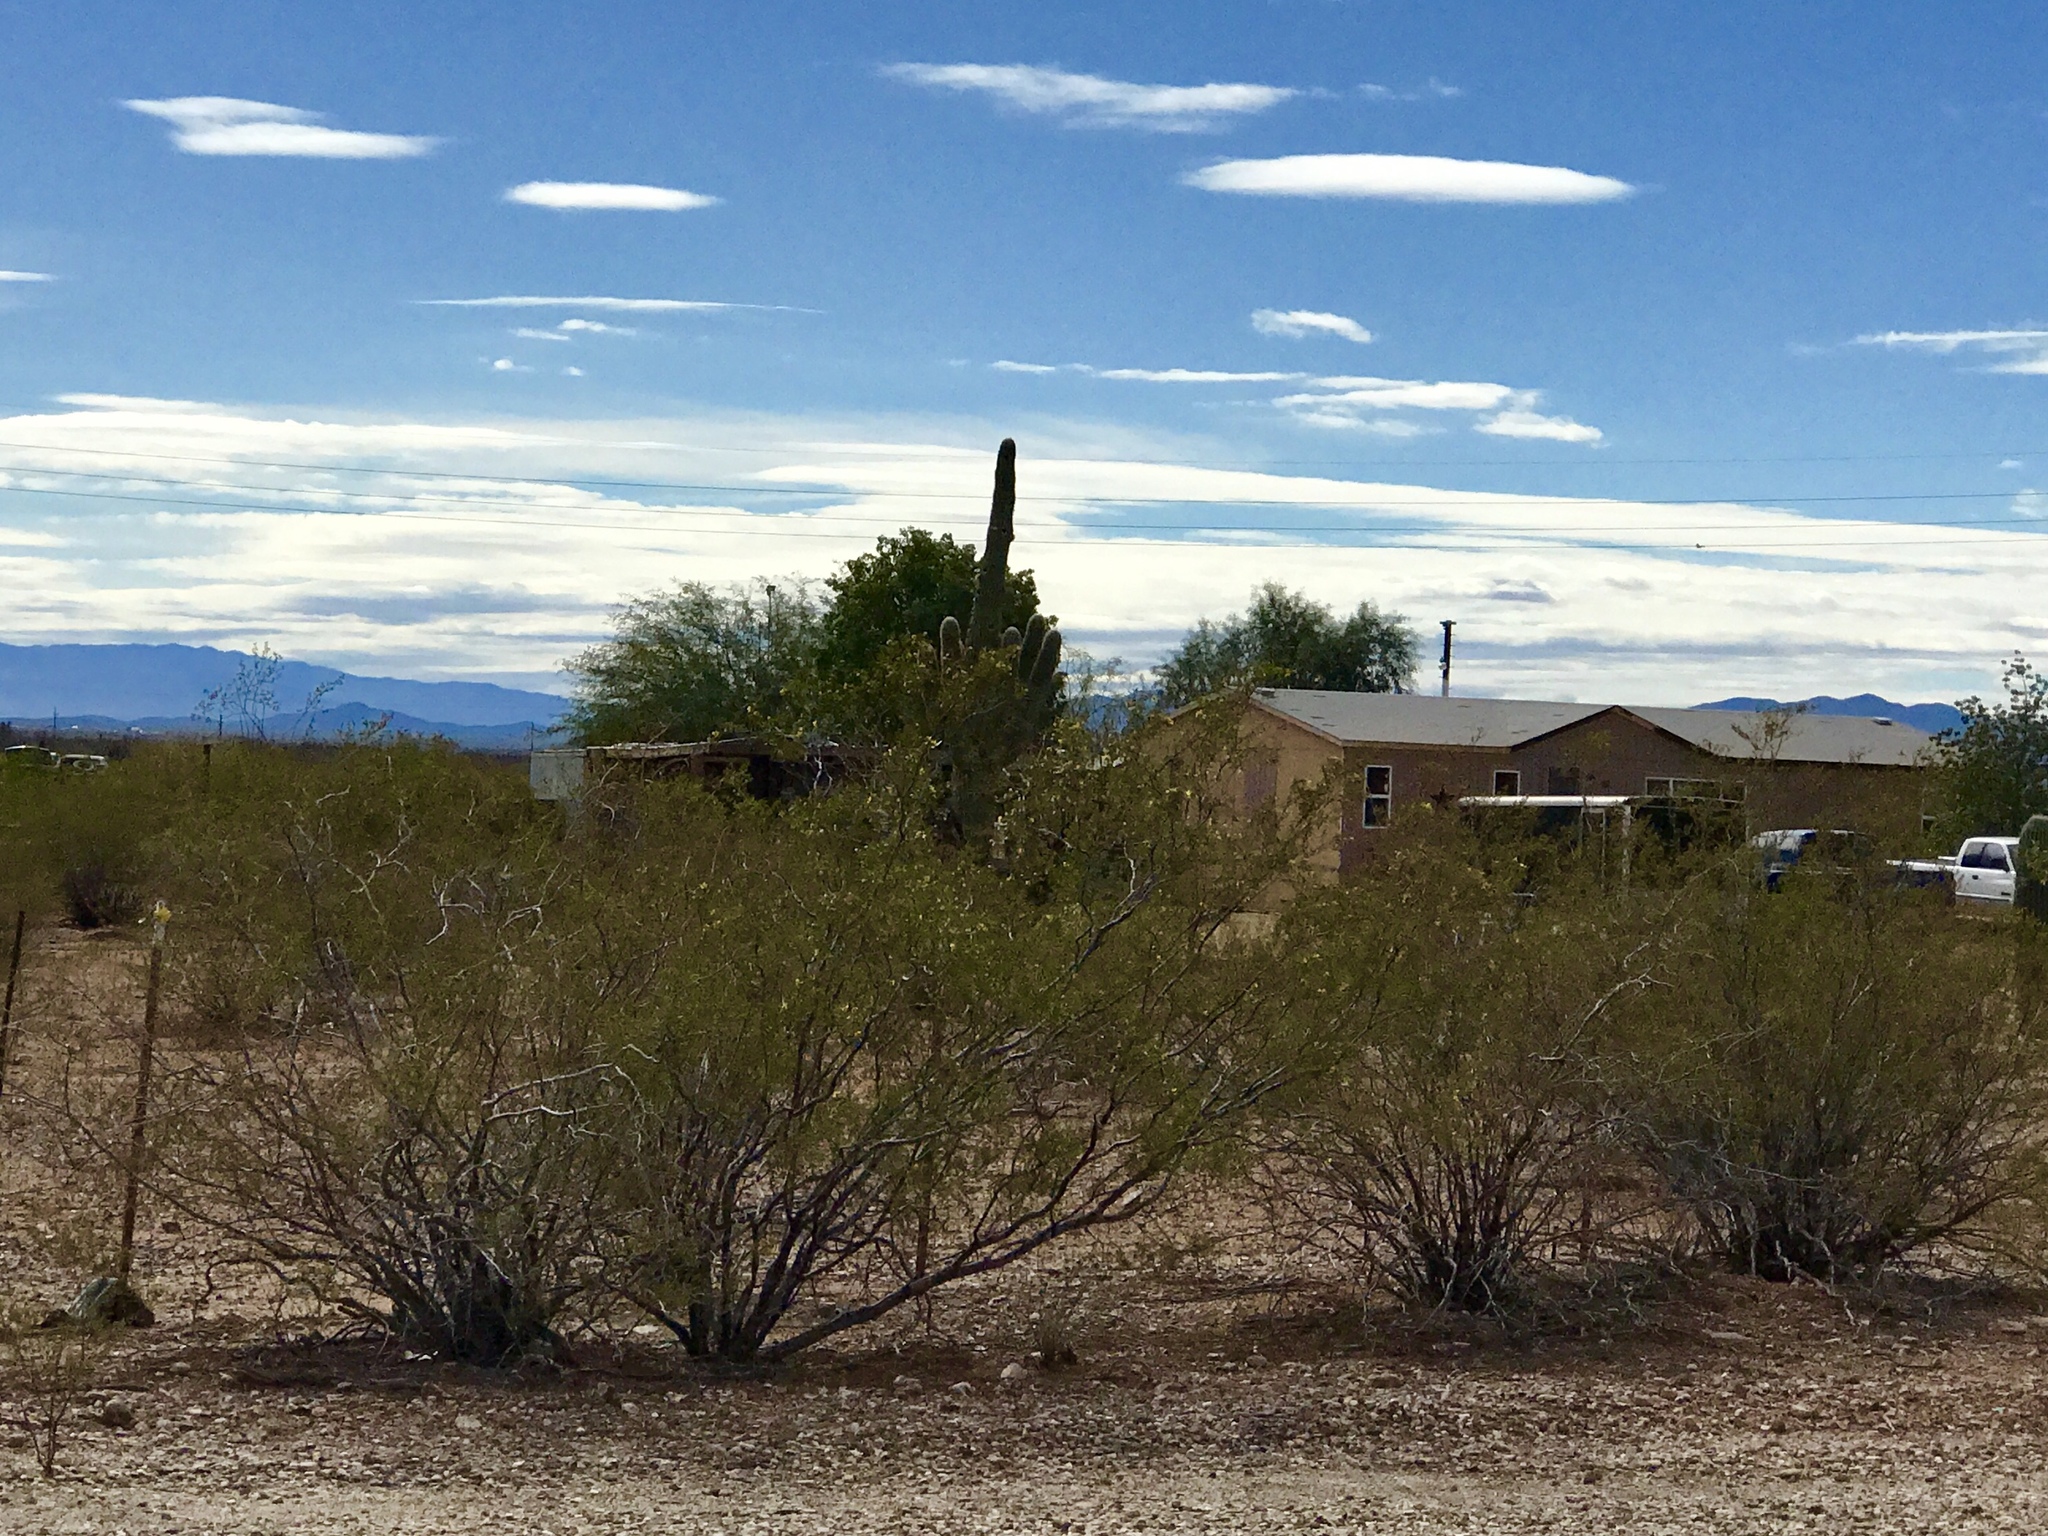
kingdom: Plantae
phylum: Tracheophyta
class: Magnoliopsida
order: Zygophyllales
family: Zygophyllaceae
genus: Larrea
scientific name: Larrea tridentata
